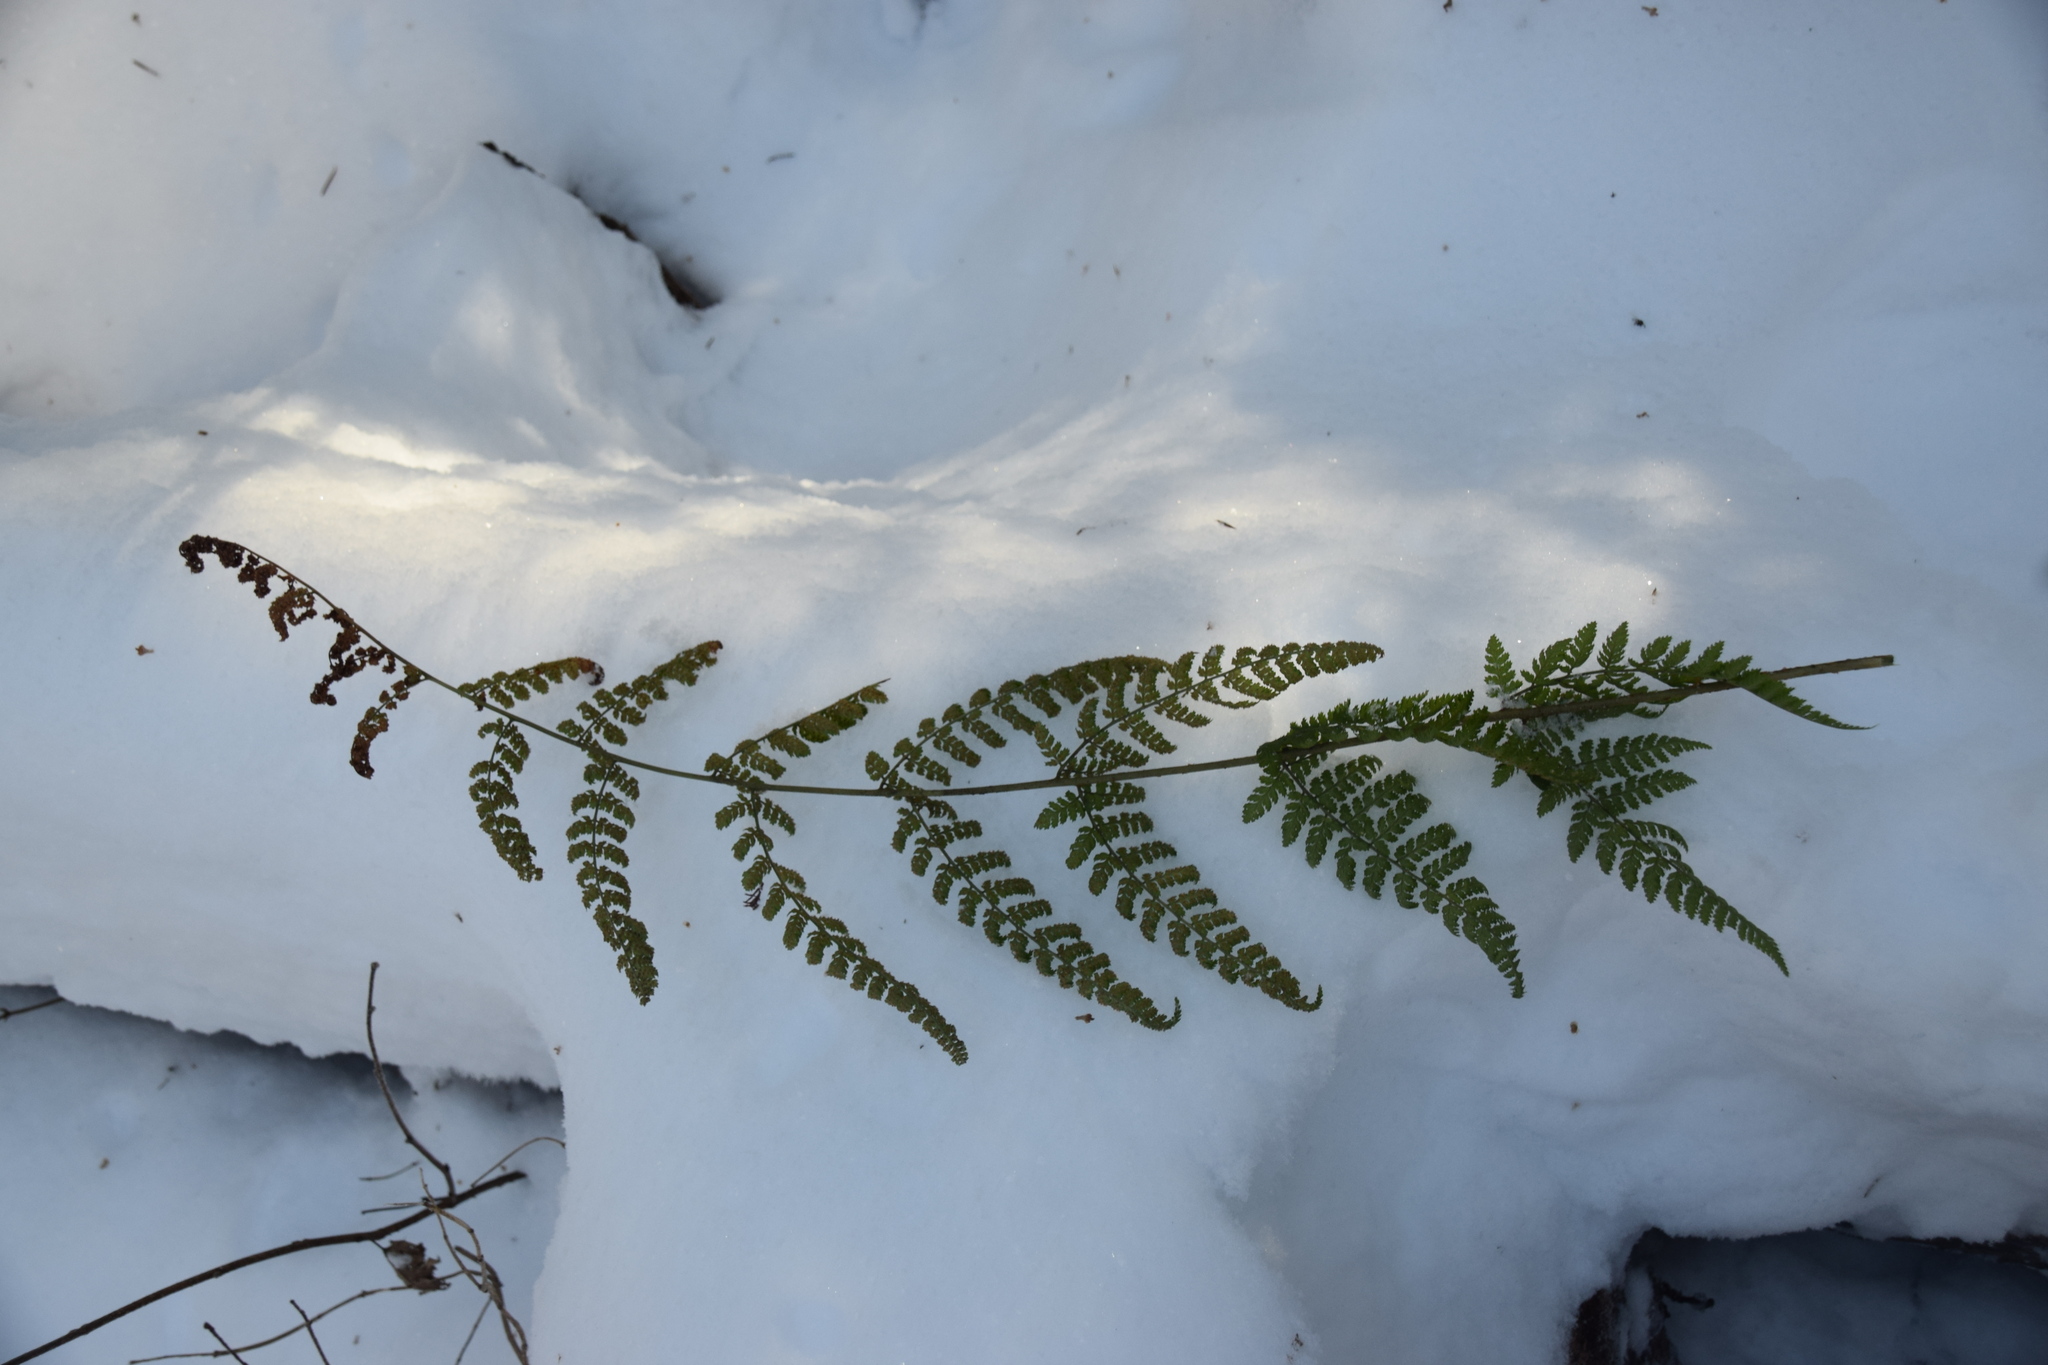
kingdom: Plantae
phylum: Tracheophyta
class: Polypodiopsida
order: Polypodiales
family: Dryopteridaceae
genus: Dryopteris
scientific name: Dryopteris intermedia
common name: Evergreen wood fern
